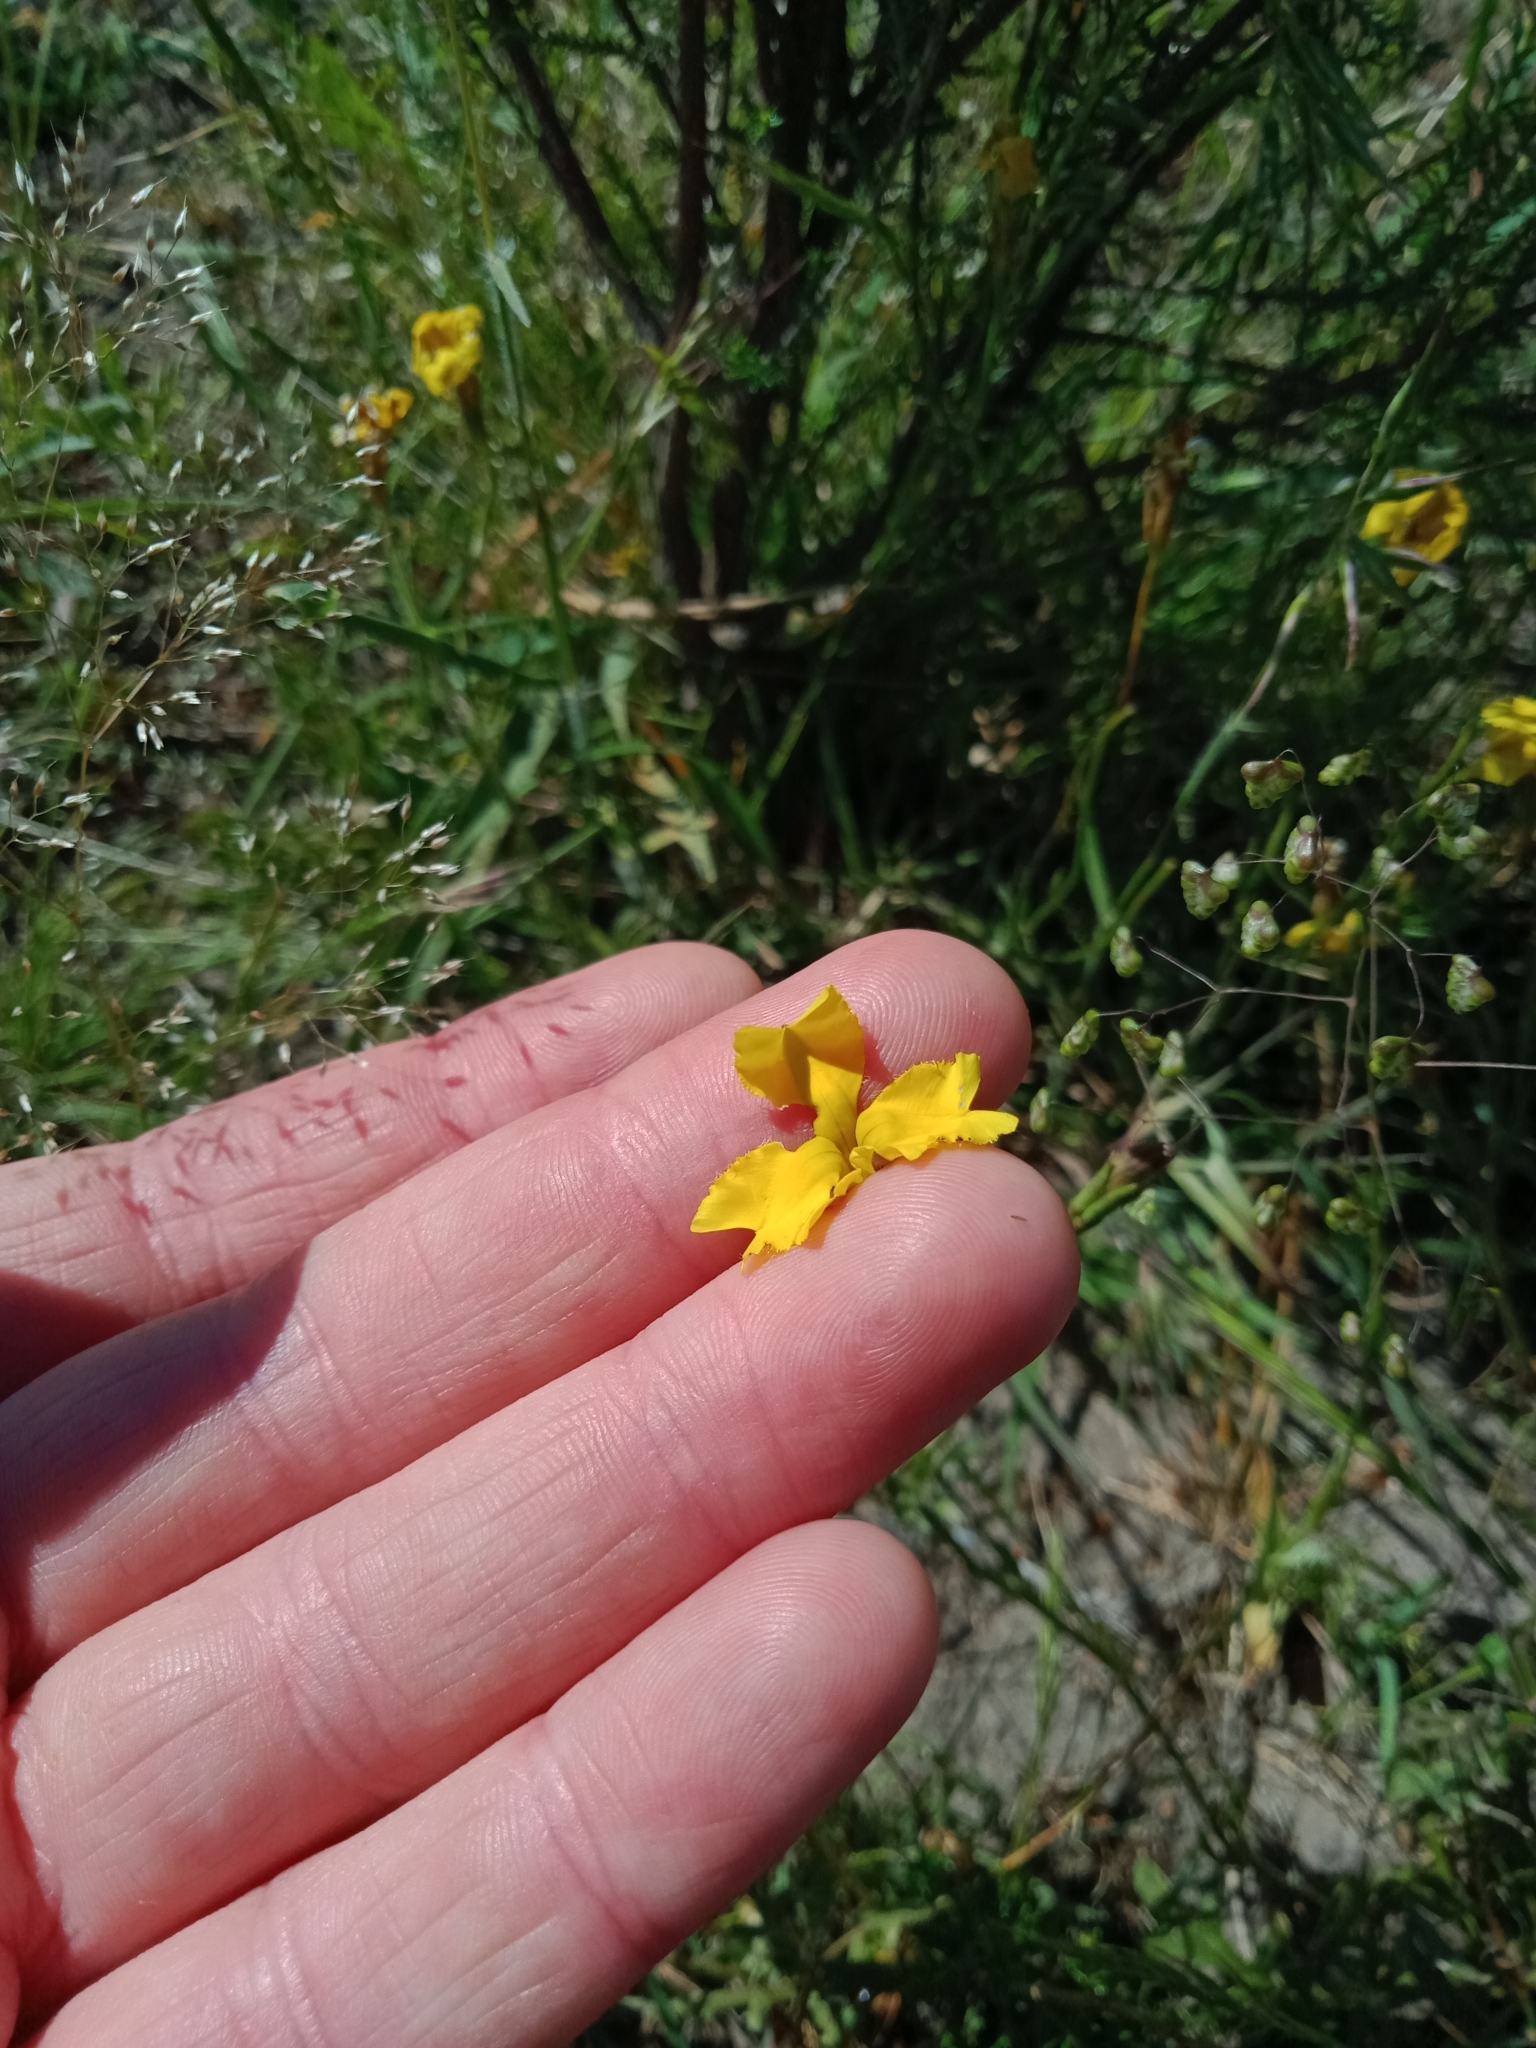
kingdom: Plantae
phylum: Tracheophyta
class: Magnoliopsida
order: Asterales
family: Goodeniaceae
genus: Goodenia
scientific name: Goodenia pinnatifida
